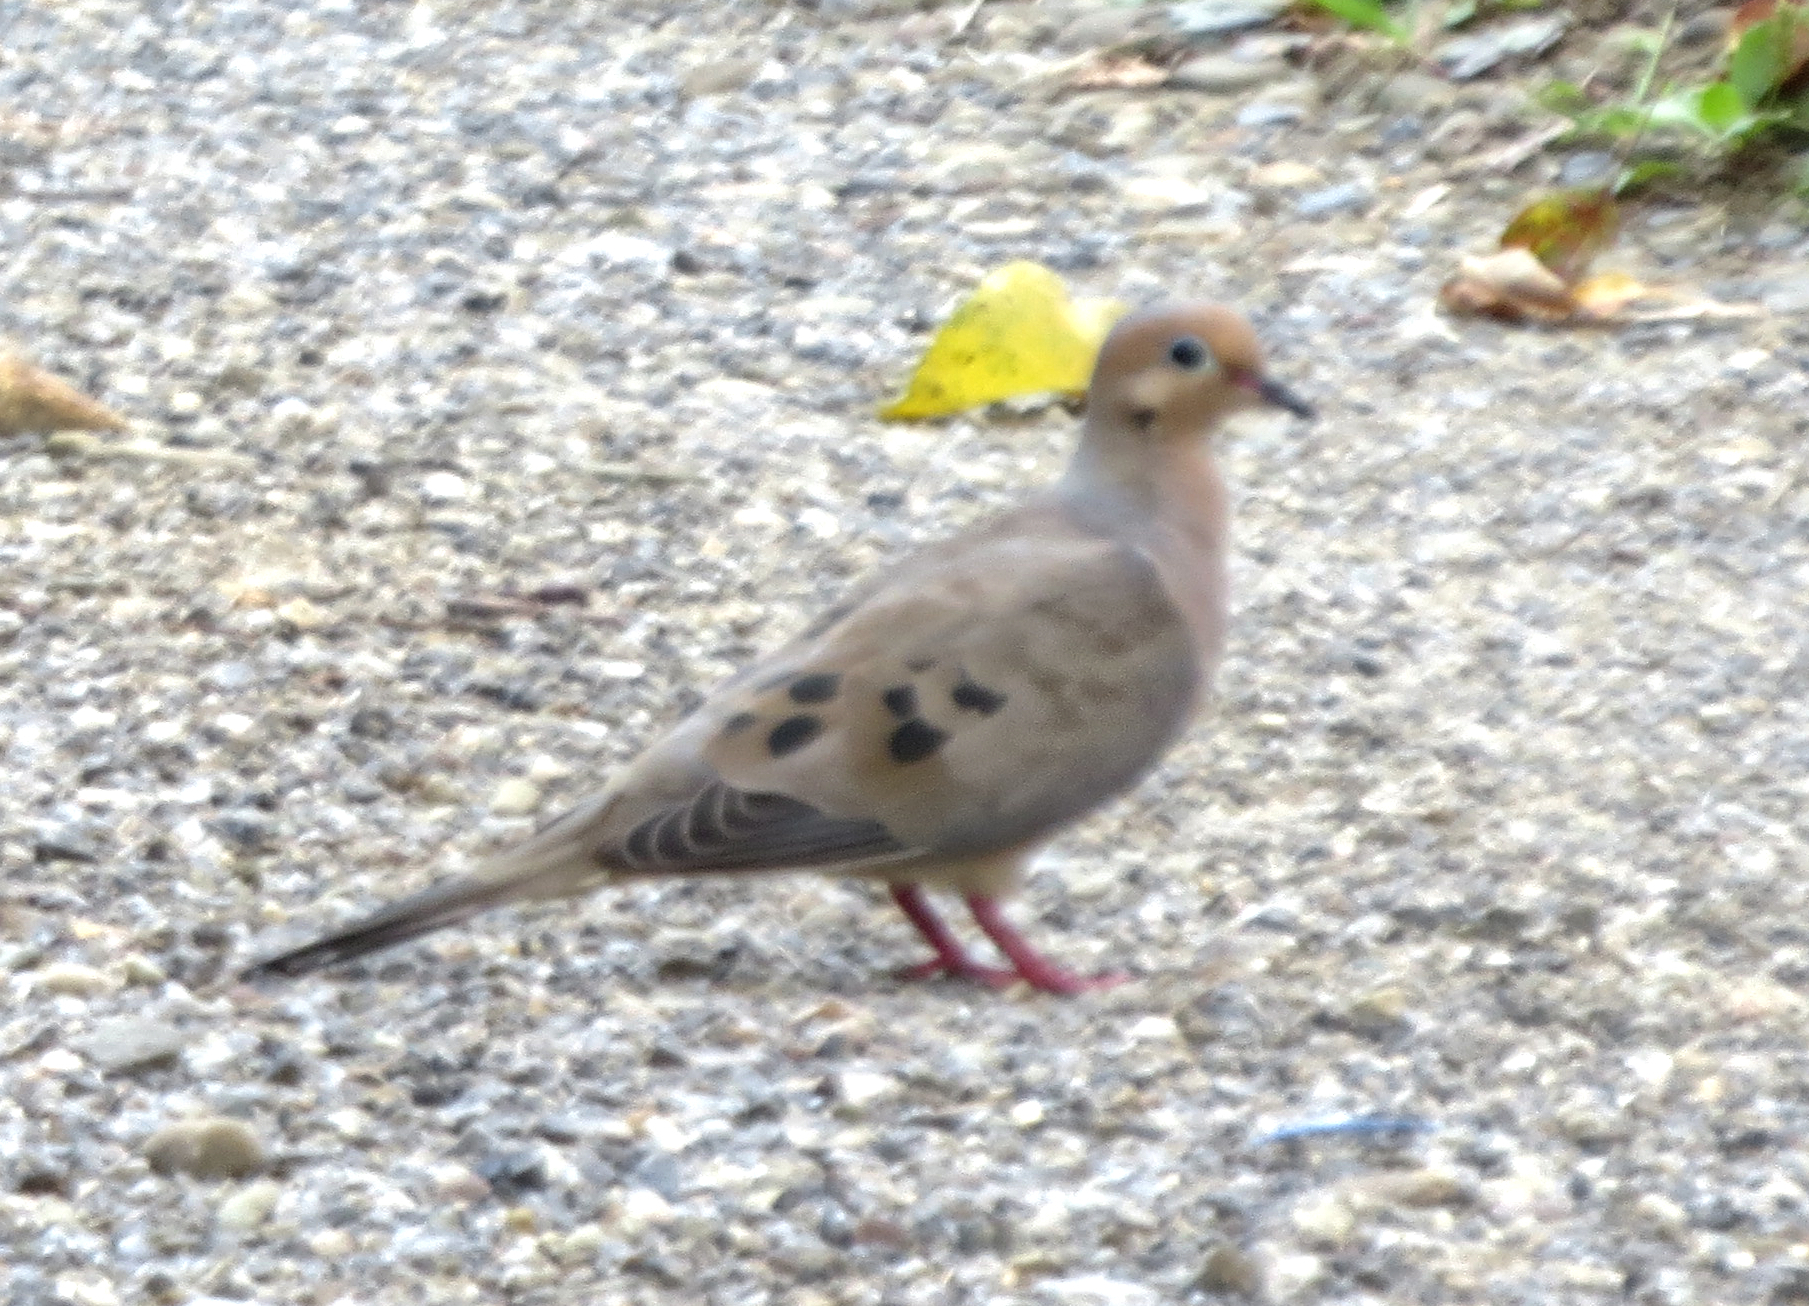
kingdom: Animalia
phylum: Chordata
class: Aves
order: Columbiformes
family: Columbidae
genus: Zenaida
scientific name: Zenaida macroura
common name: Mourning dove
